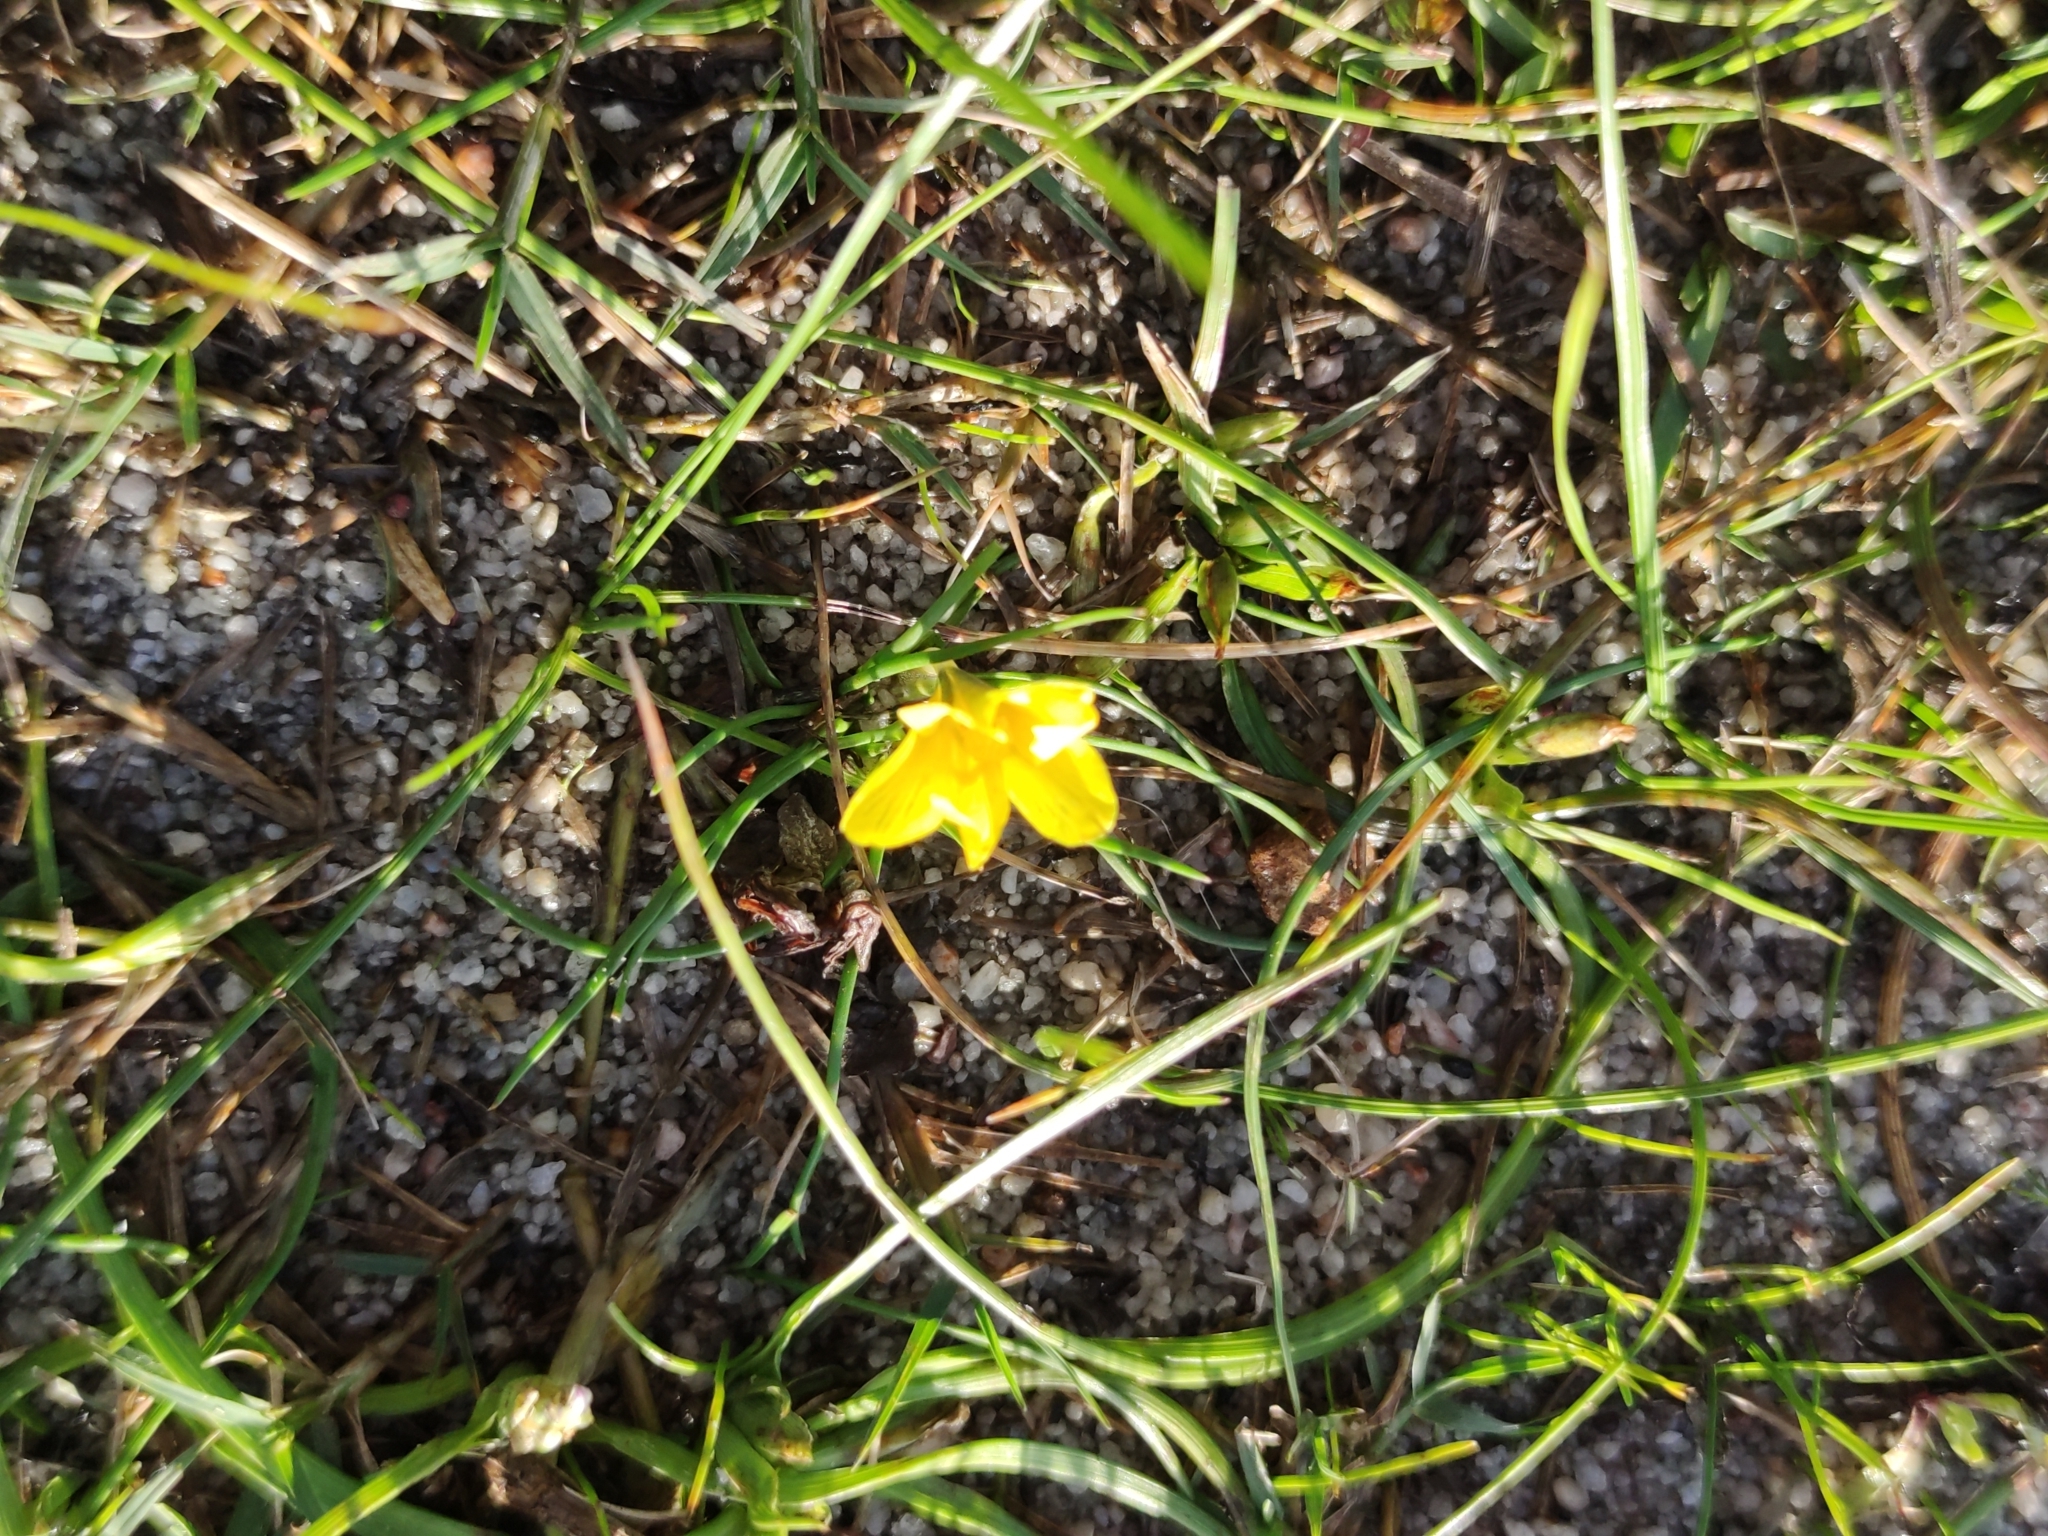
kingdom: Plantae
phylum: Tracheophyta
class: Liliopsida
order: Asparagales
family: Iridaceae
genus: Moraea
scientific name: Moraea fugacissima
